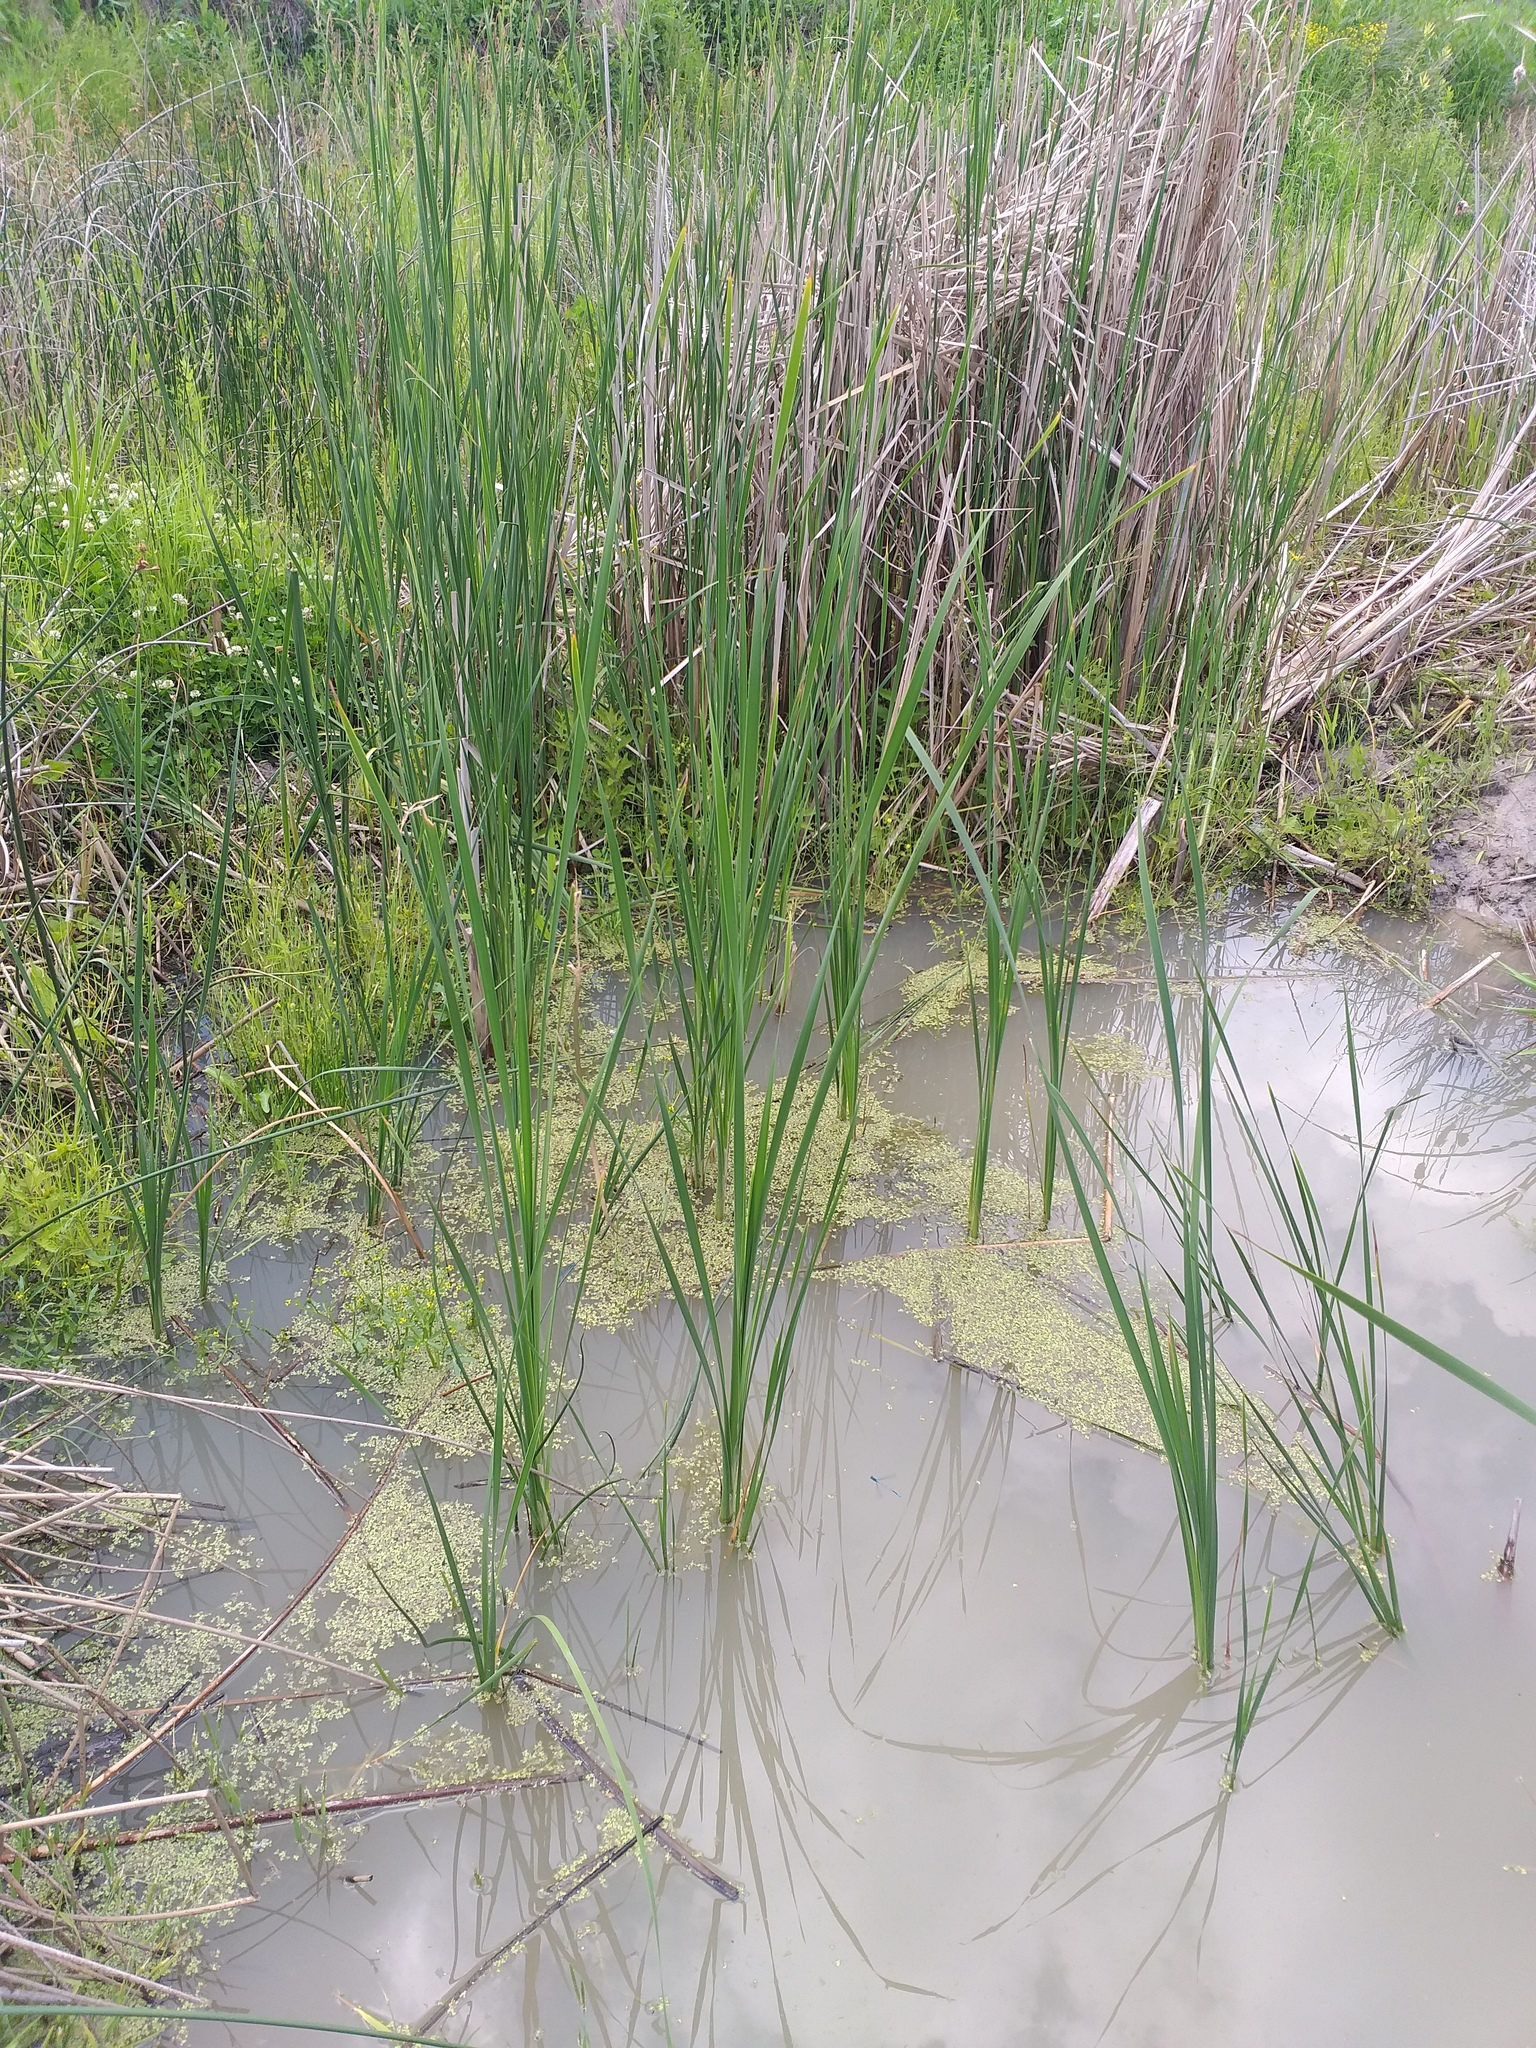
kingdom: Plantae
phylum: Tracheophyta
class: Liliopsida
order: Poales
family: Typhaceae
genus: Typha
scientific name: Typha latifolia
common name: Broadleaf cattail
